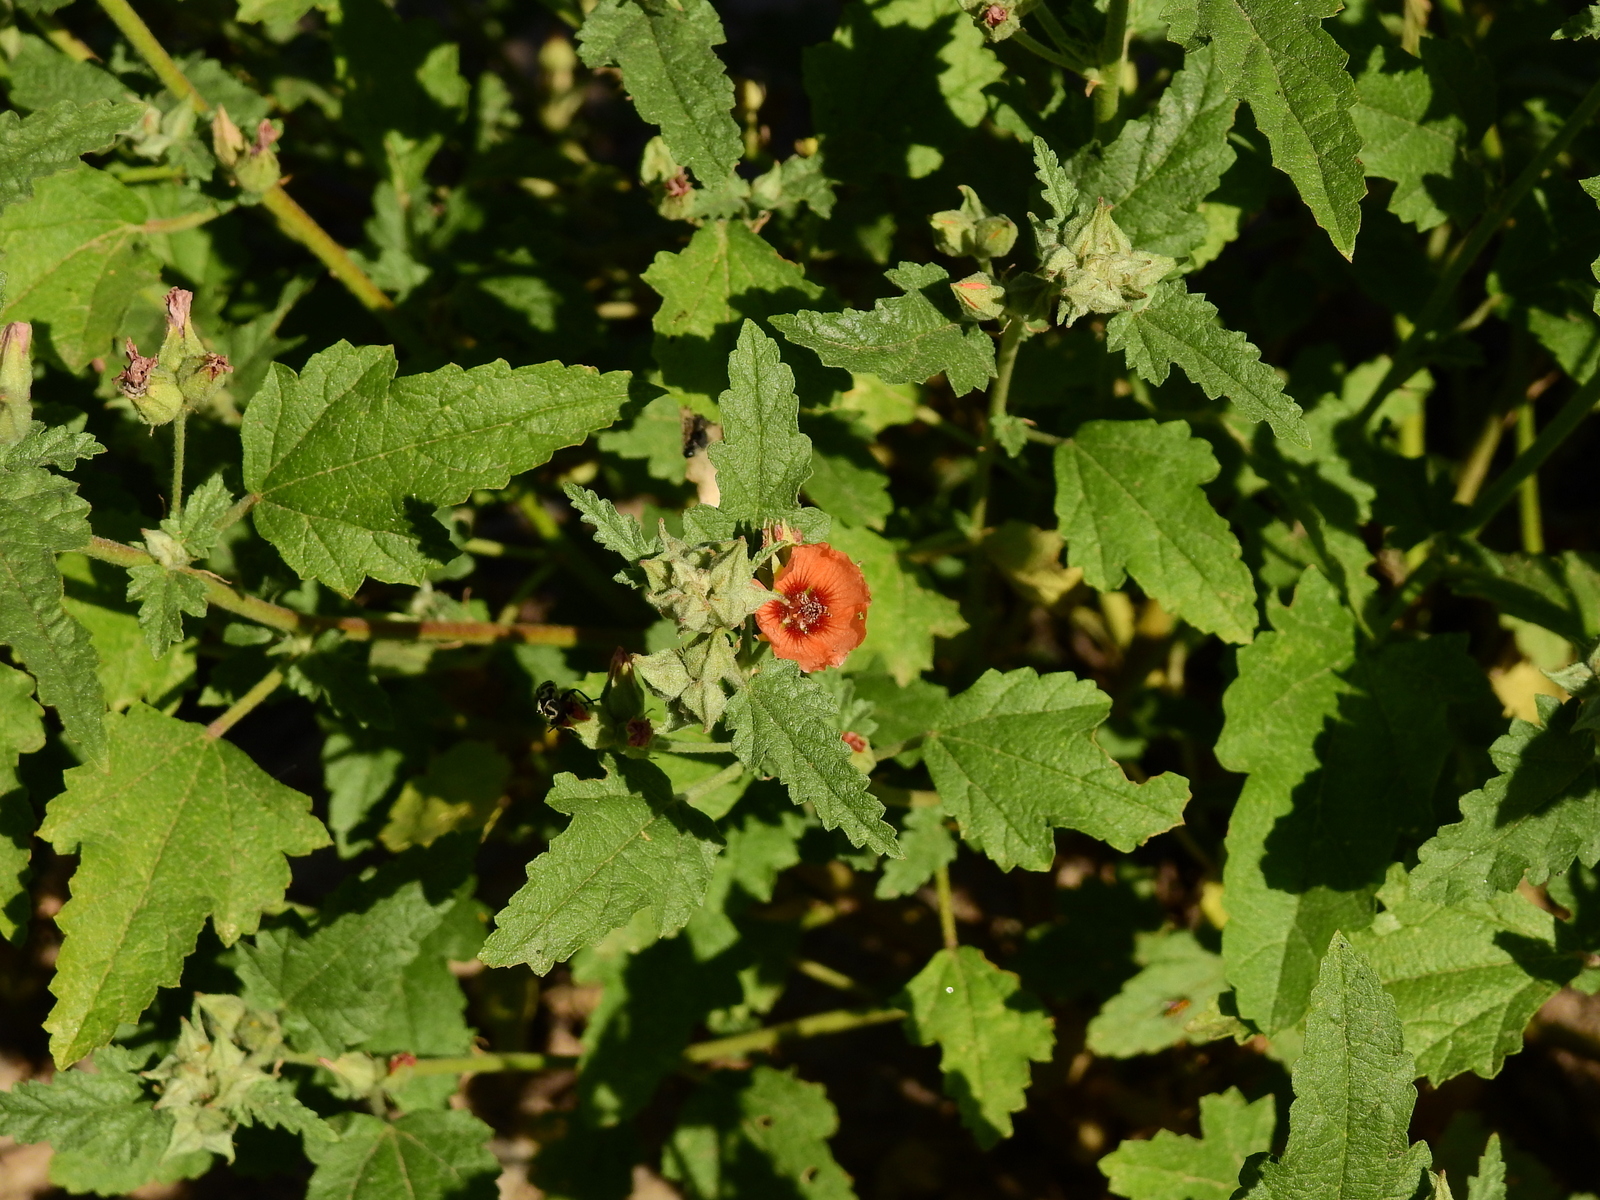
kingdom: Plantae
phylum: Tracheophyta
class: Magnoliopsida
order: Malvales
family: Malvaceae
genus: Sphaeralcea
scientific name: Sphaeralcea miniata
